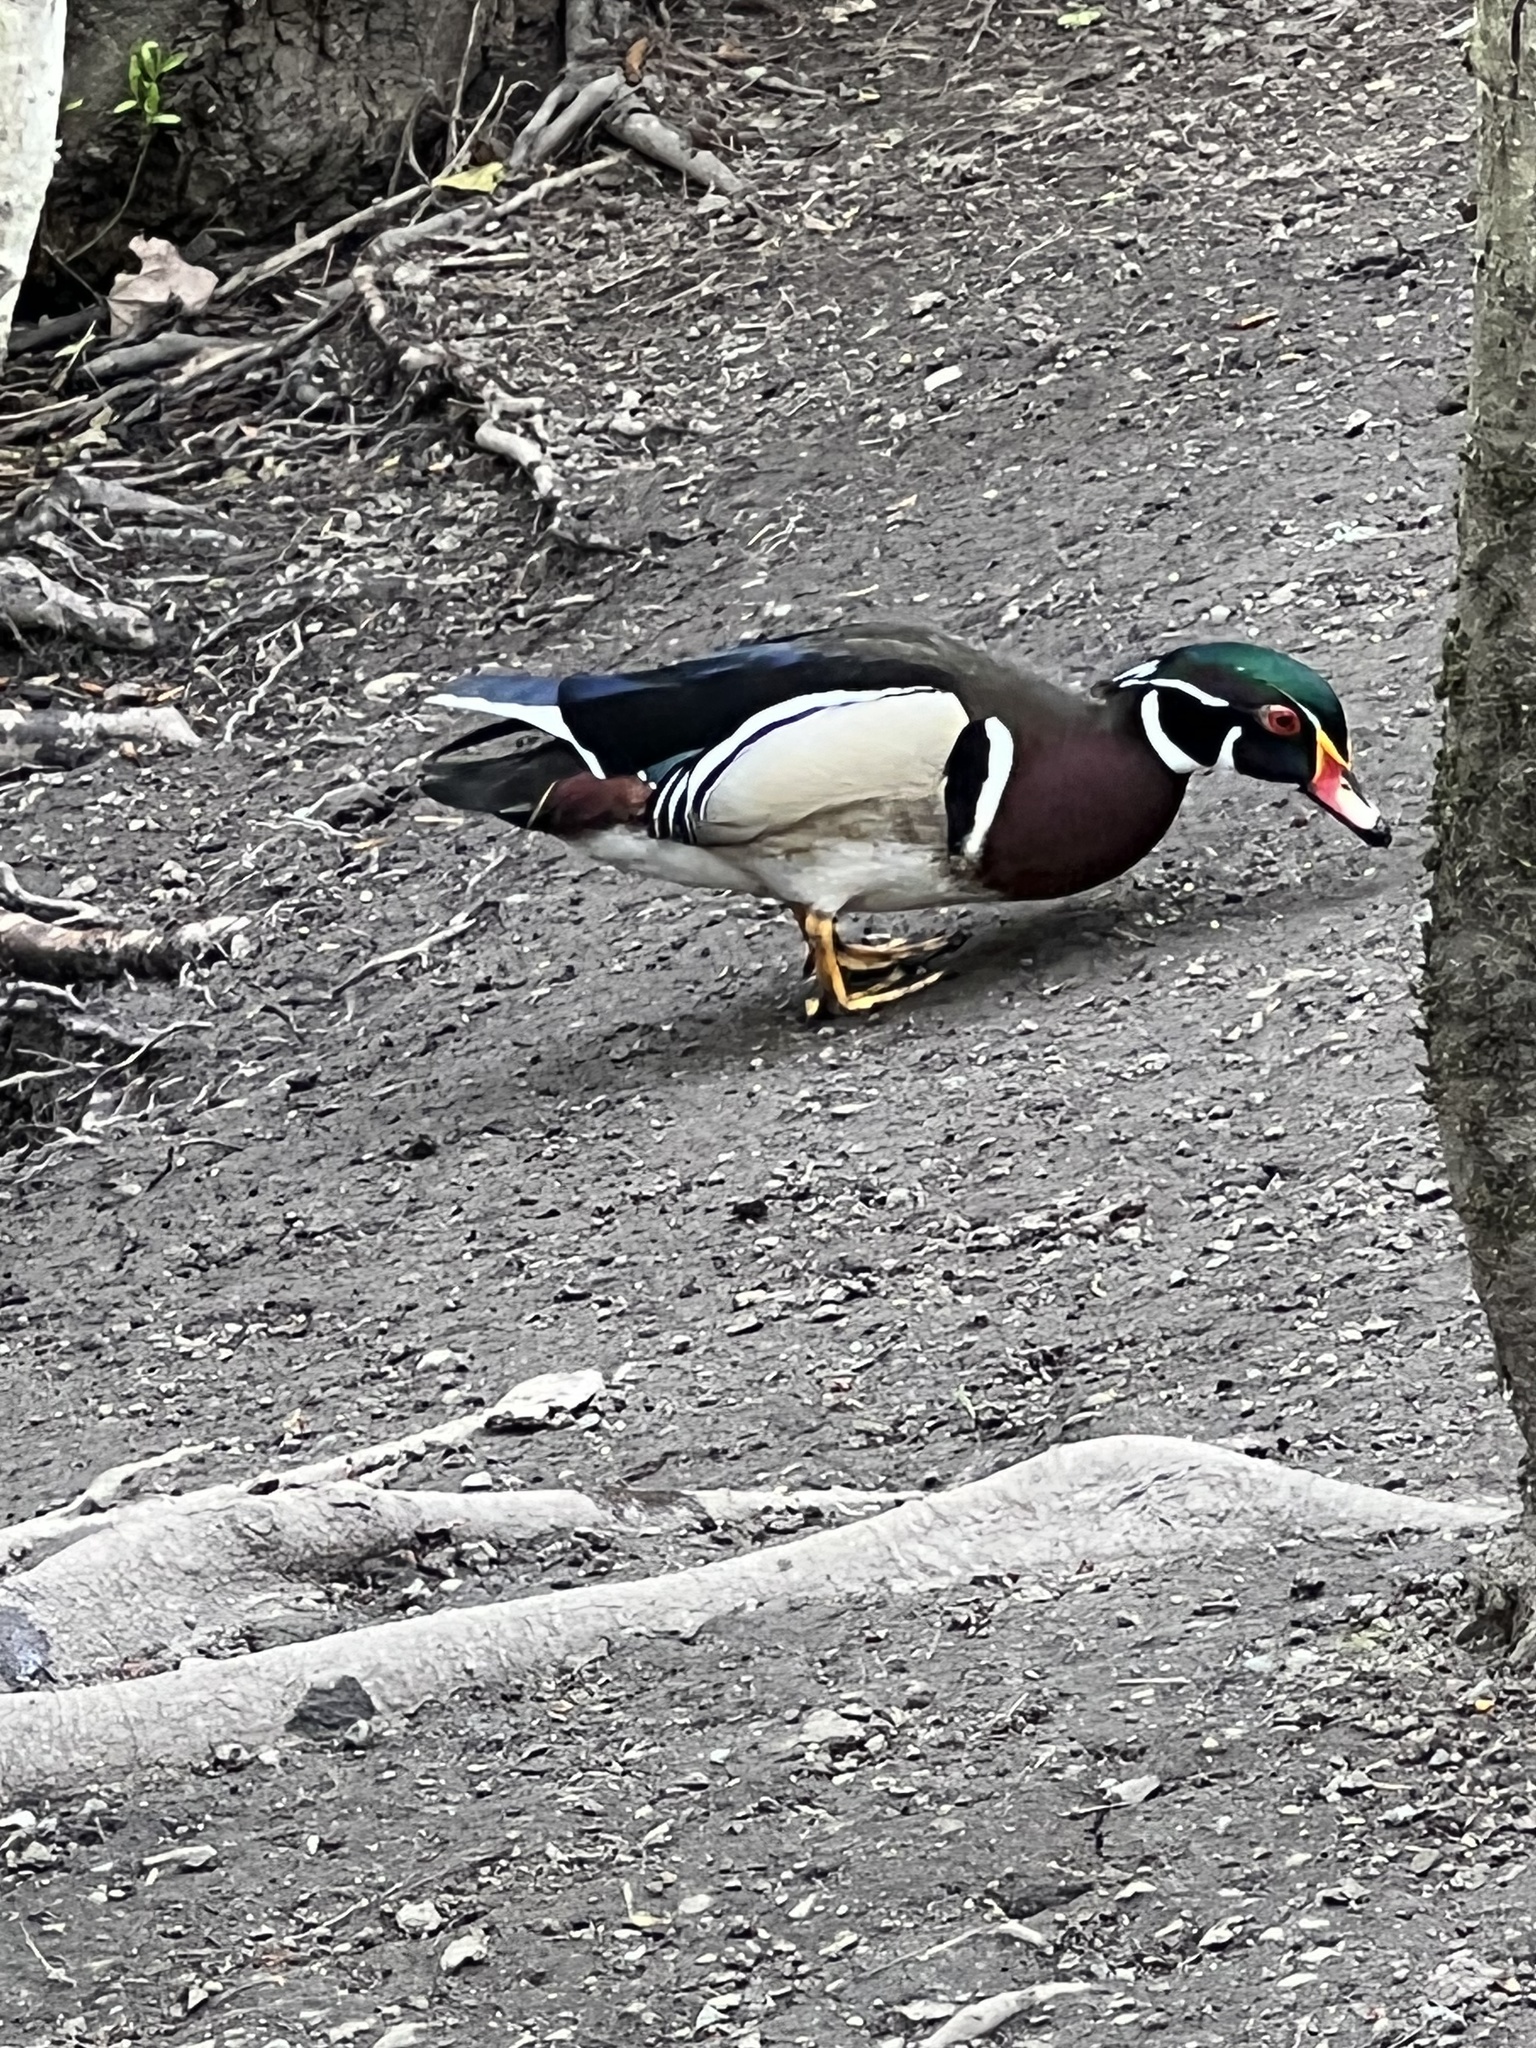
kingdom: Animalia
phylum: Chordata
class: Aves
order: Anseriformes
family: Anatidae
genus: Aix
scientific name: Aix sponsa
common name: Wood duck
